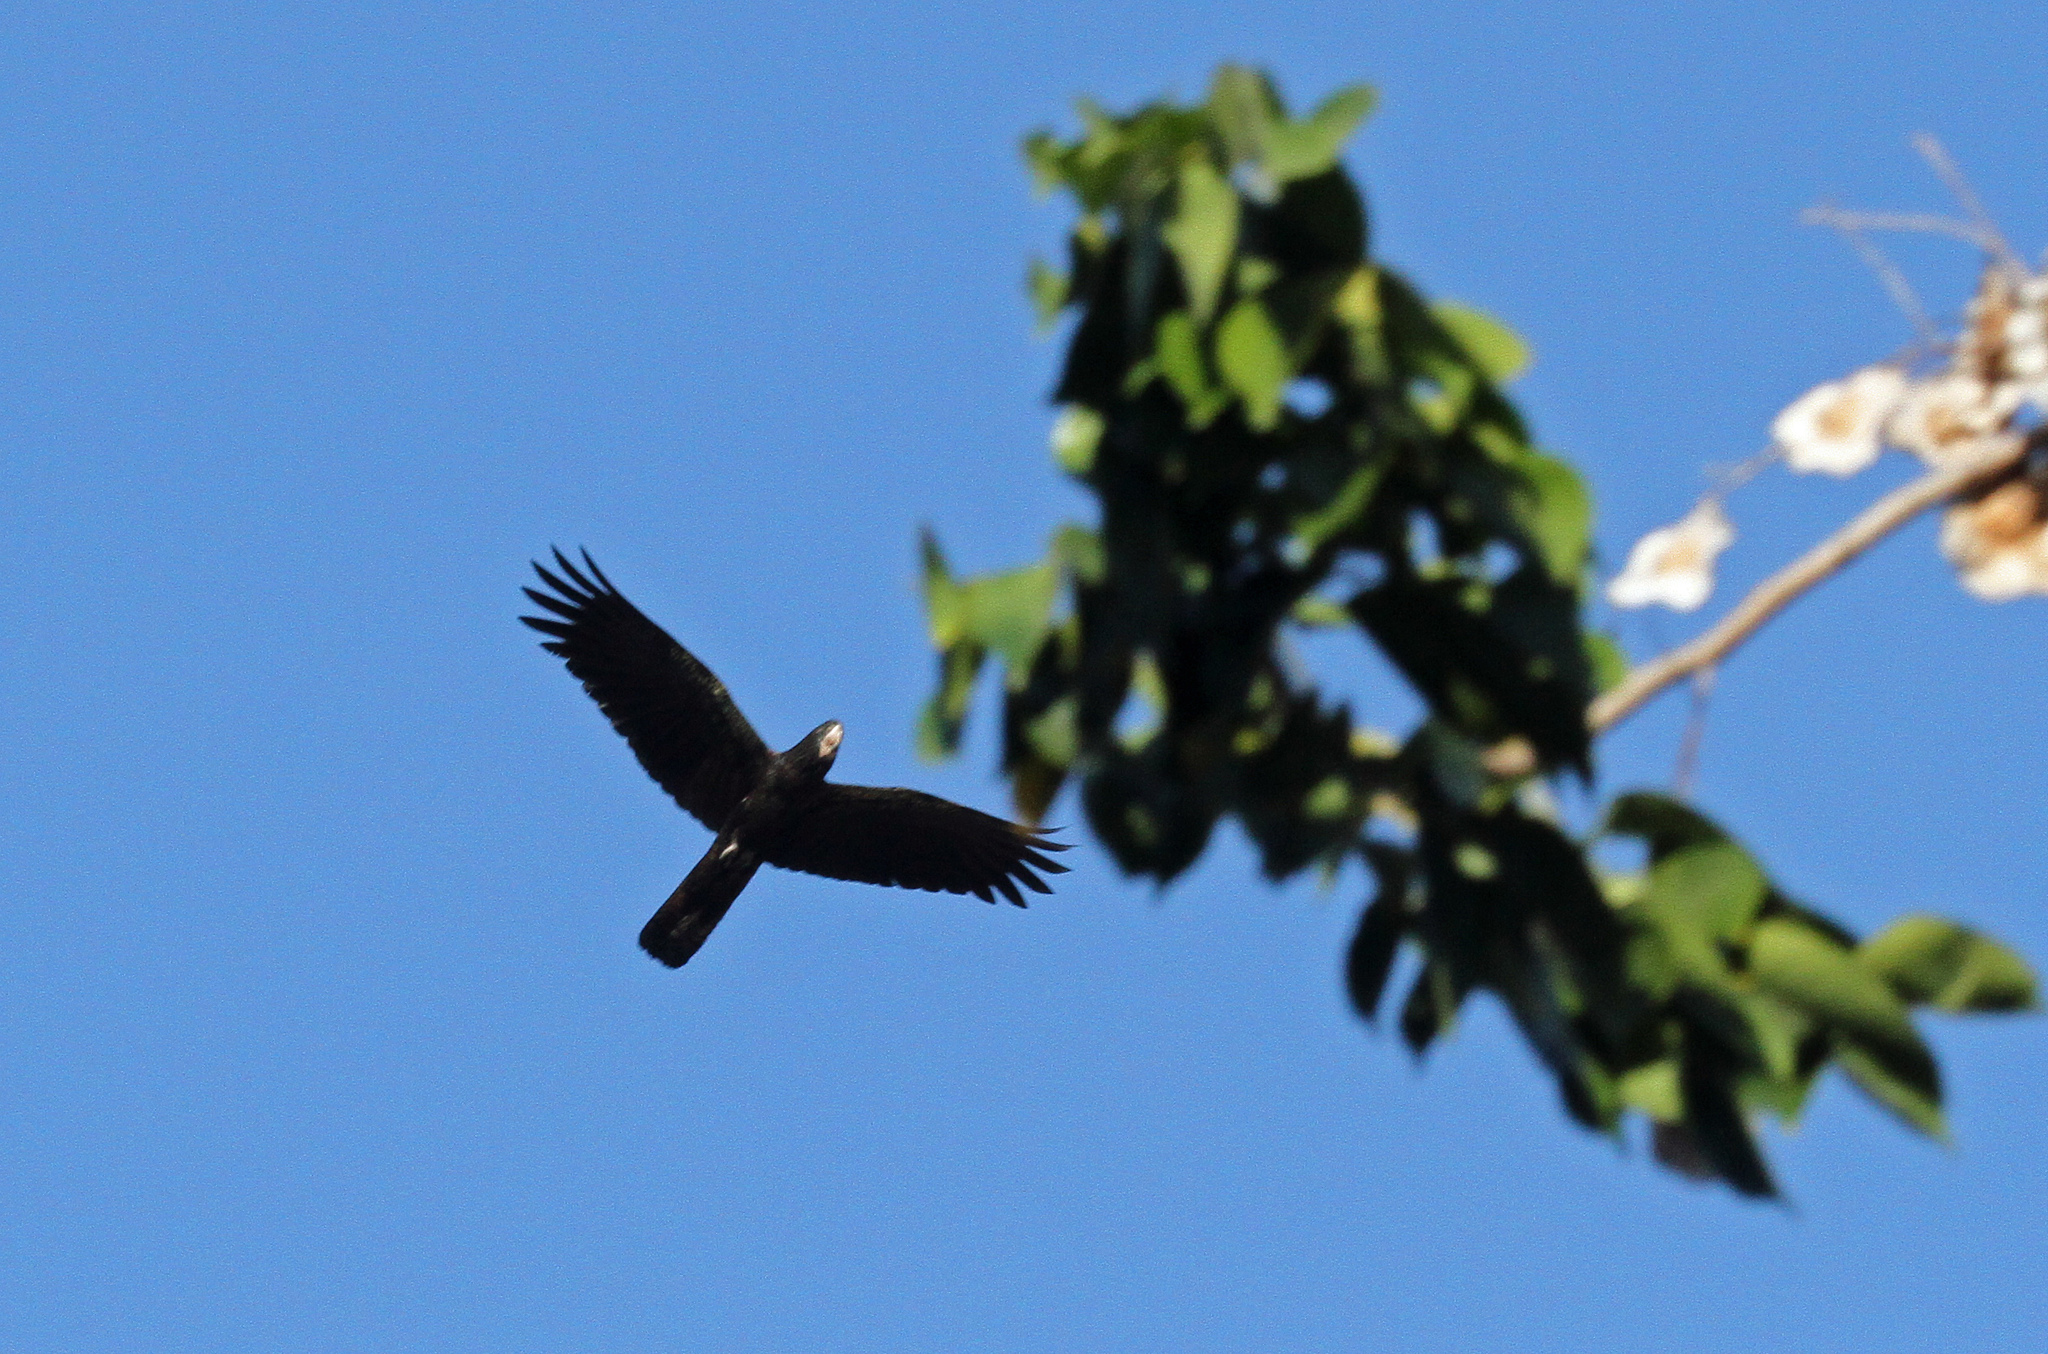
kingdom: Animalia
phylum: Chordata
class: Aves
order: Psittaciformes
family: Psittacidae
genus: Calyptorhynchus
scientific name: Calyptorhynchus banksii
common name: Red-tailed black cockatoo
